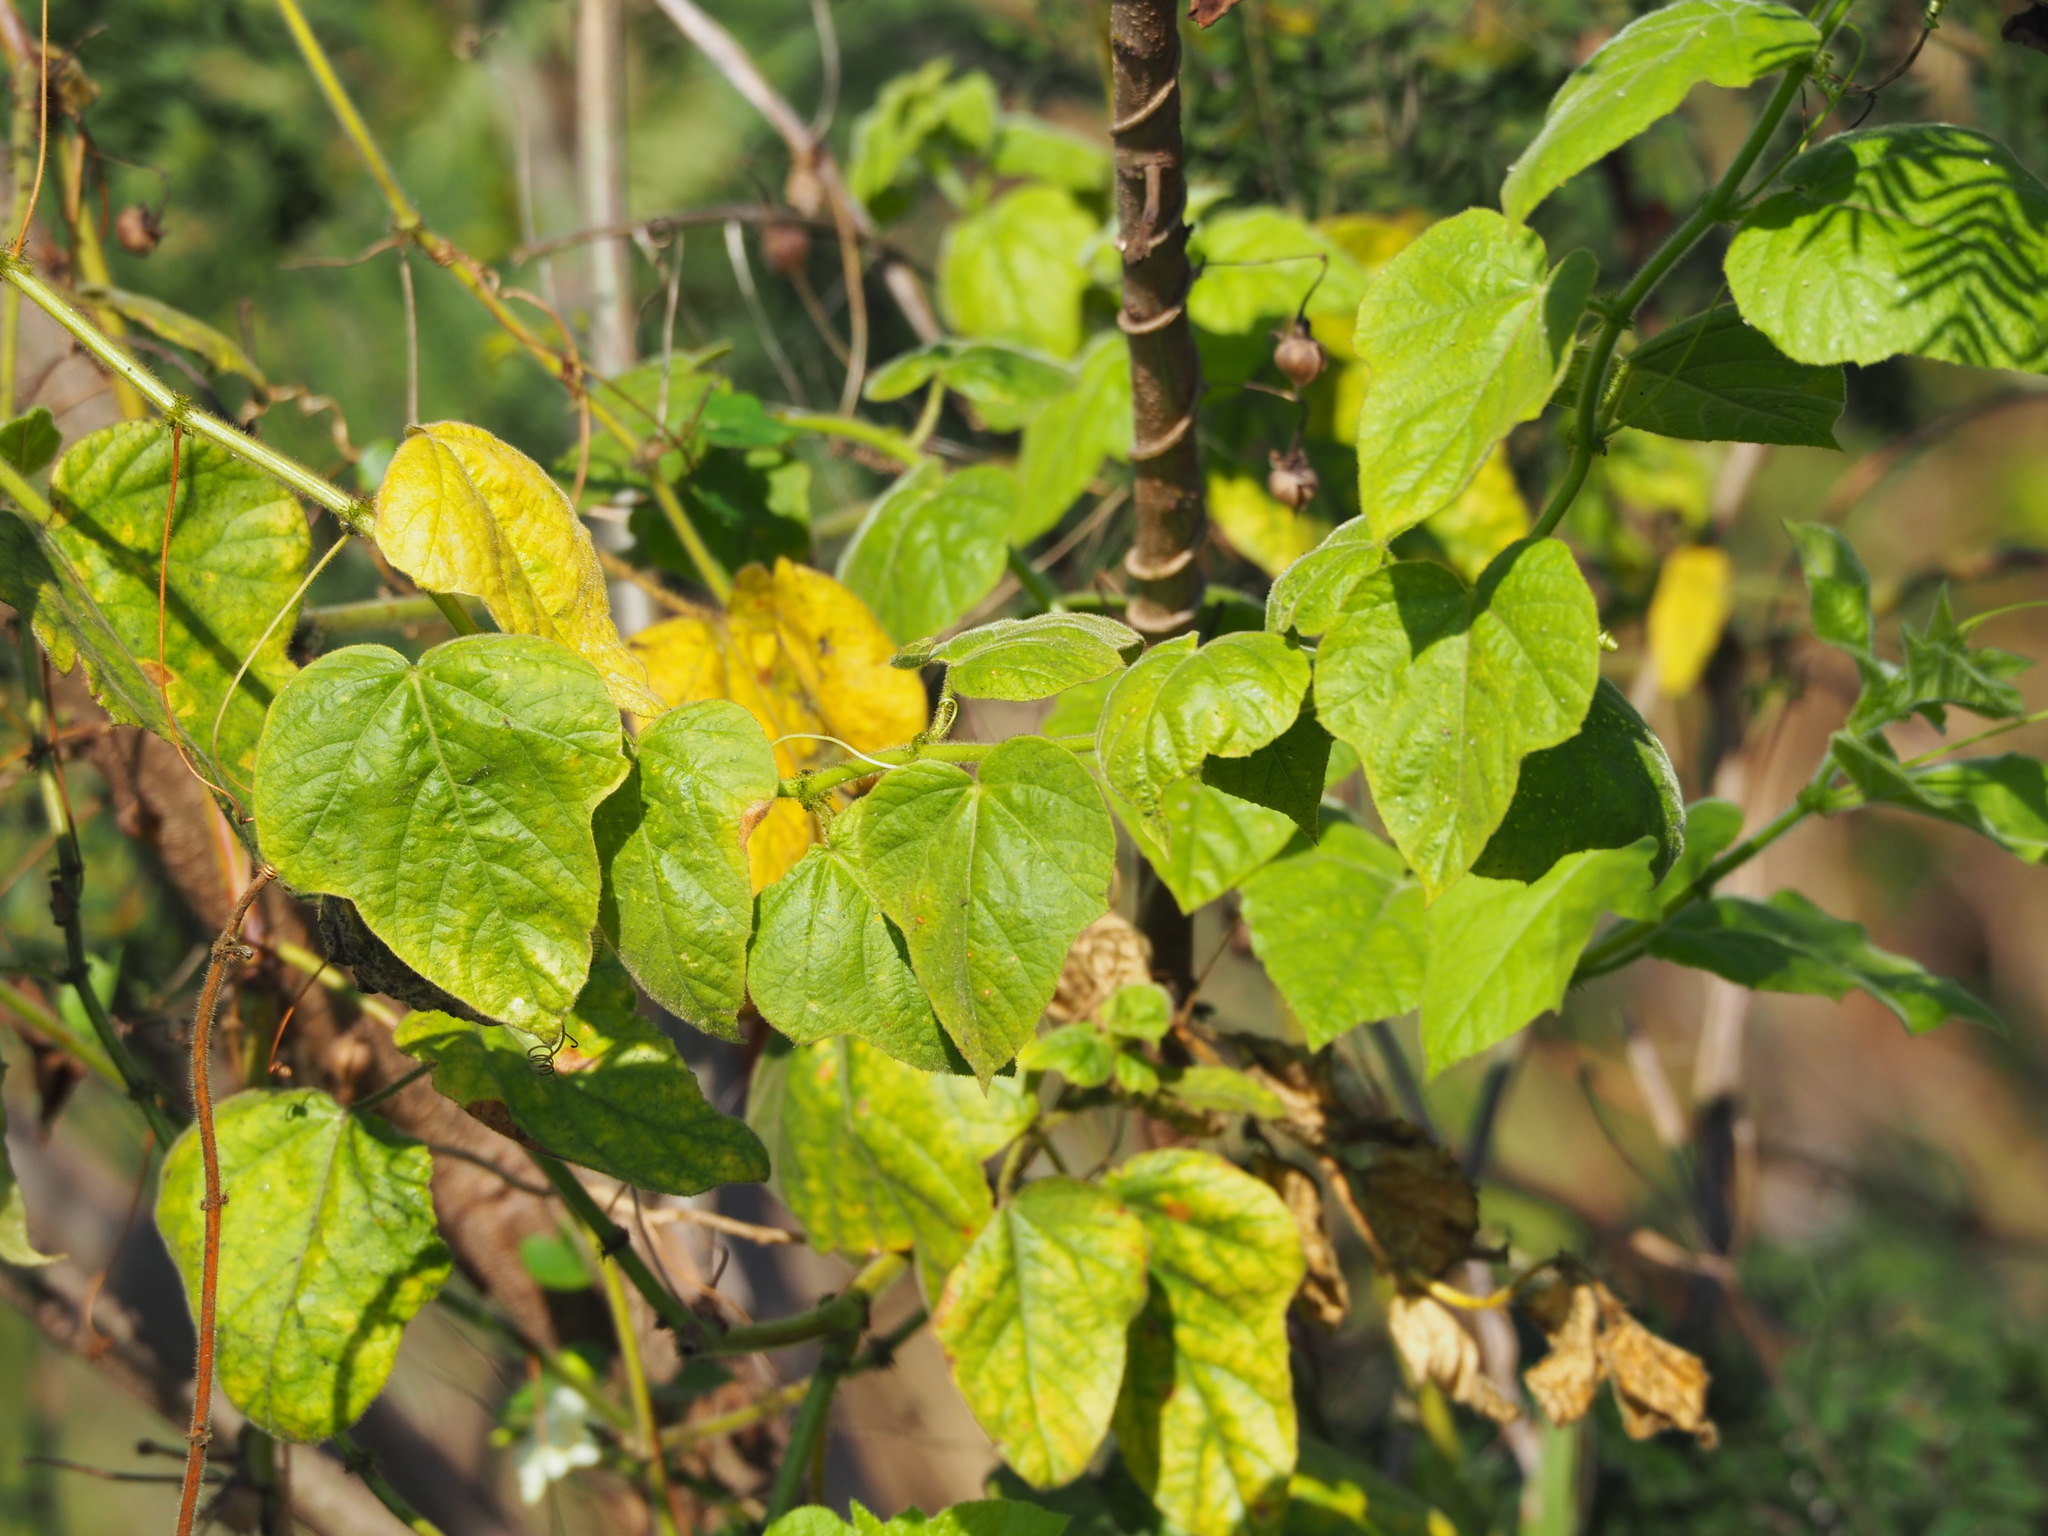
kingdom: Plantae
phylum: Tracheophyta
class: Magnoliopsida
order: Malpighiales
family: Passifloraceae
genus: Passiflora
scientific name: Passiflora vesicaria
